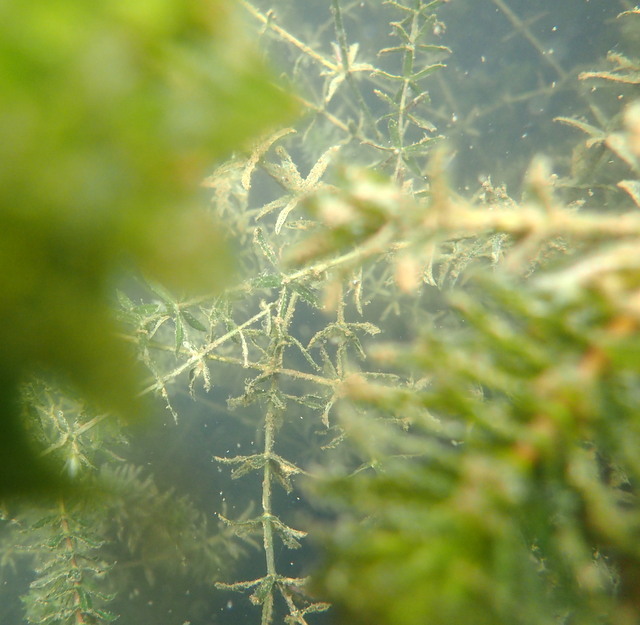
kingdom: Plantae
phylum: Tracheophyta
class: Liliopsida
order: Alismatales
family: Hydrocharitaceae
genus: Hydrilla
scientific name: Hydrilla verticillata
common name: Florida-elodea
